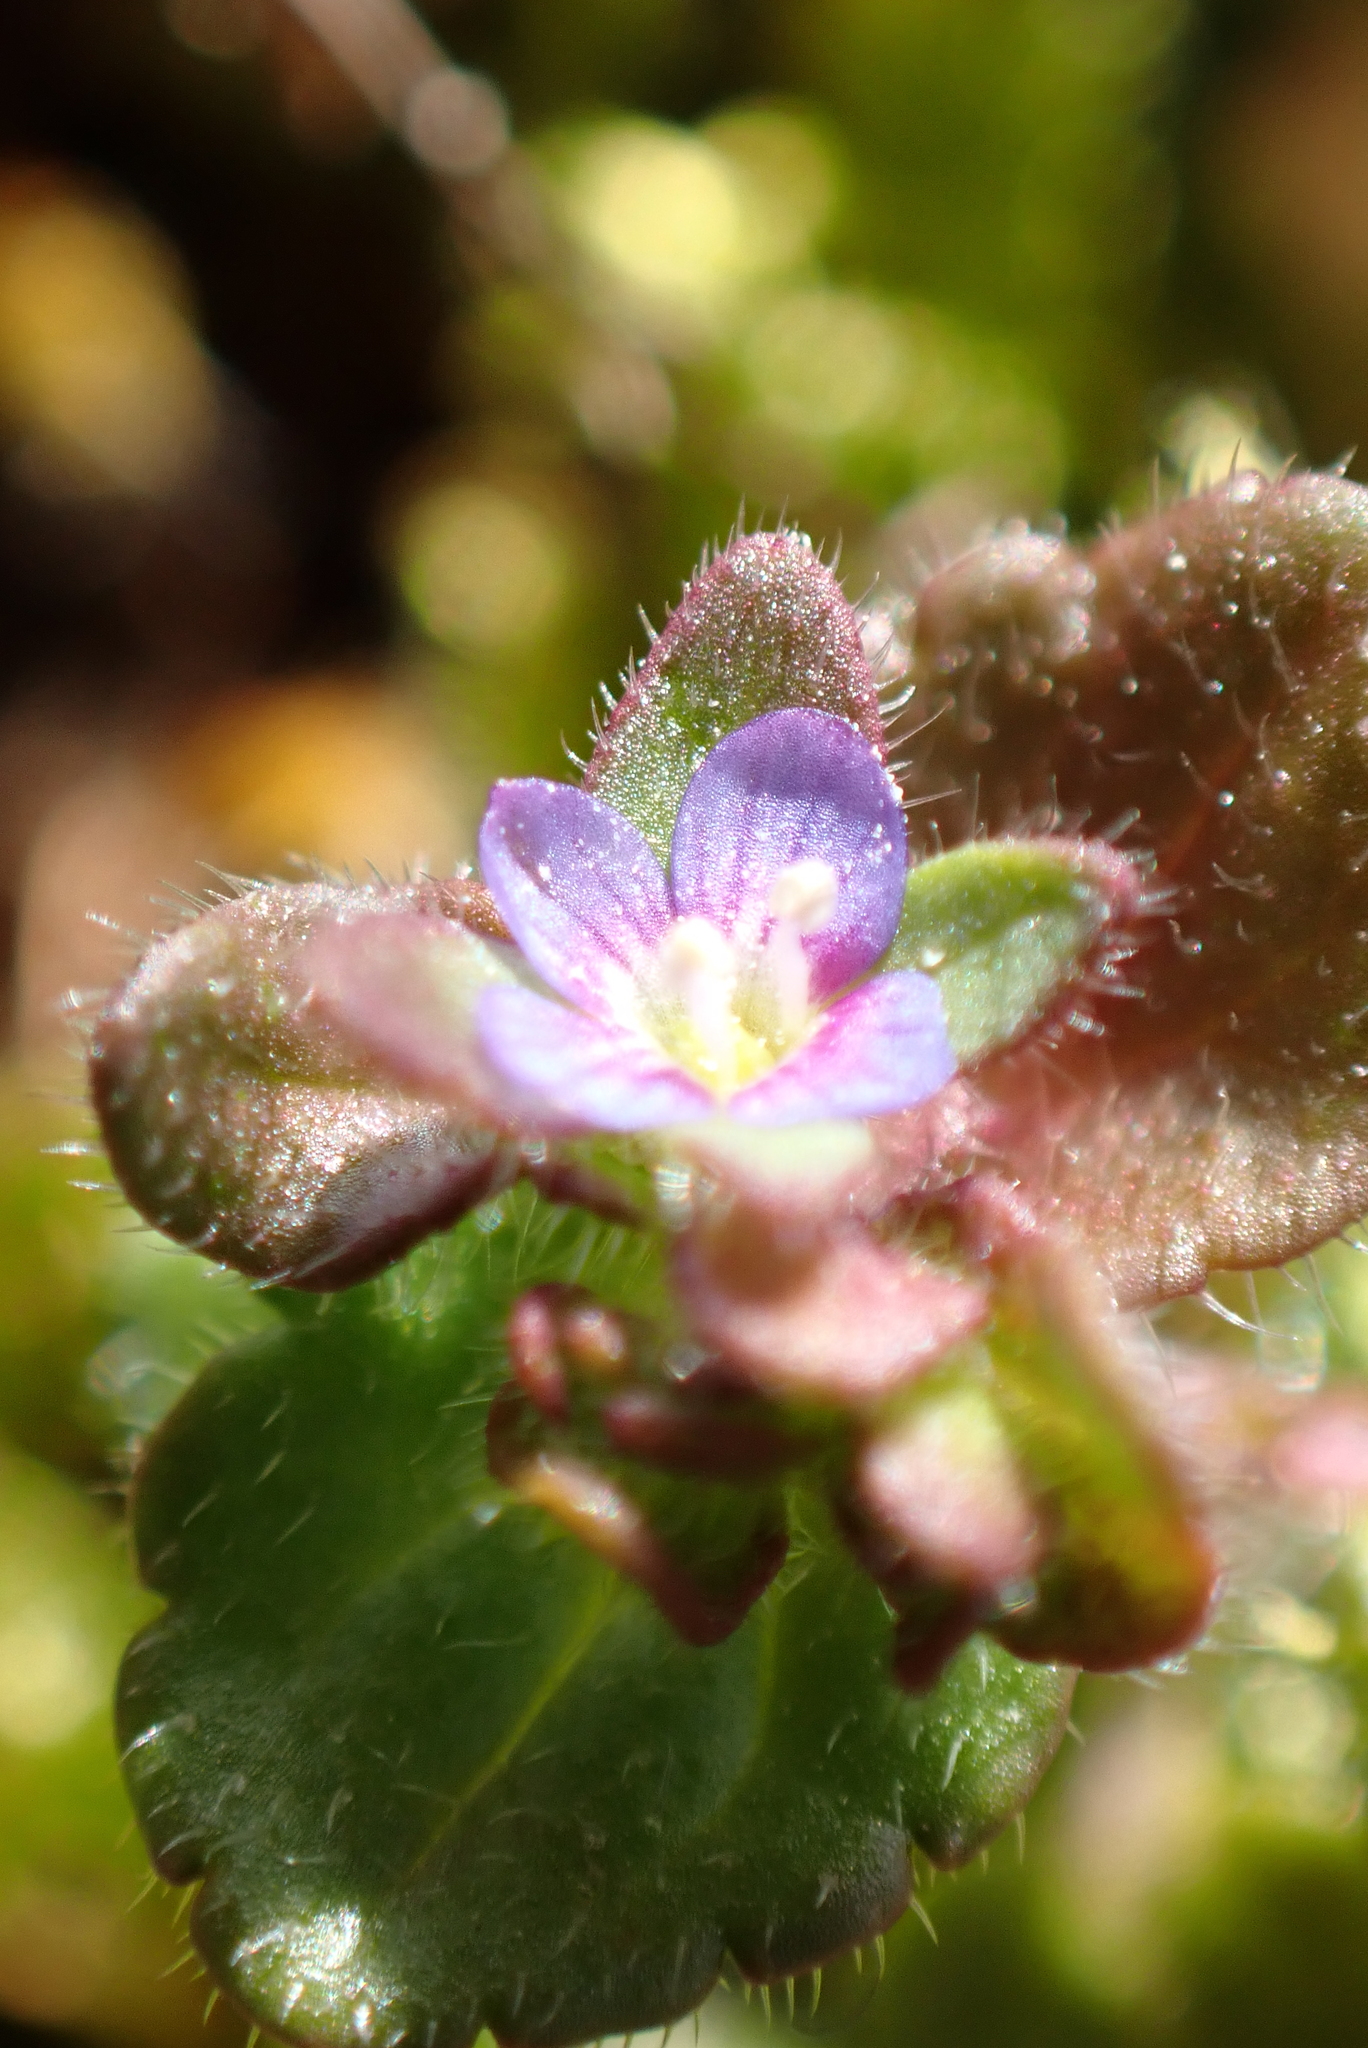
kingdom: Plantae
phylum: Tracheophyta
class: Magnoliopsida
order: Lamiales
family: Plantaginaceae
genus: Veronica
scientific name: Veronica arvensis
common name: Corn speedwell
